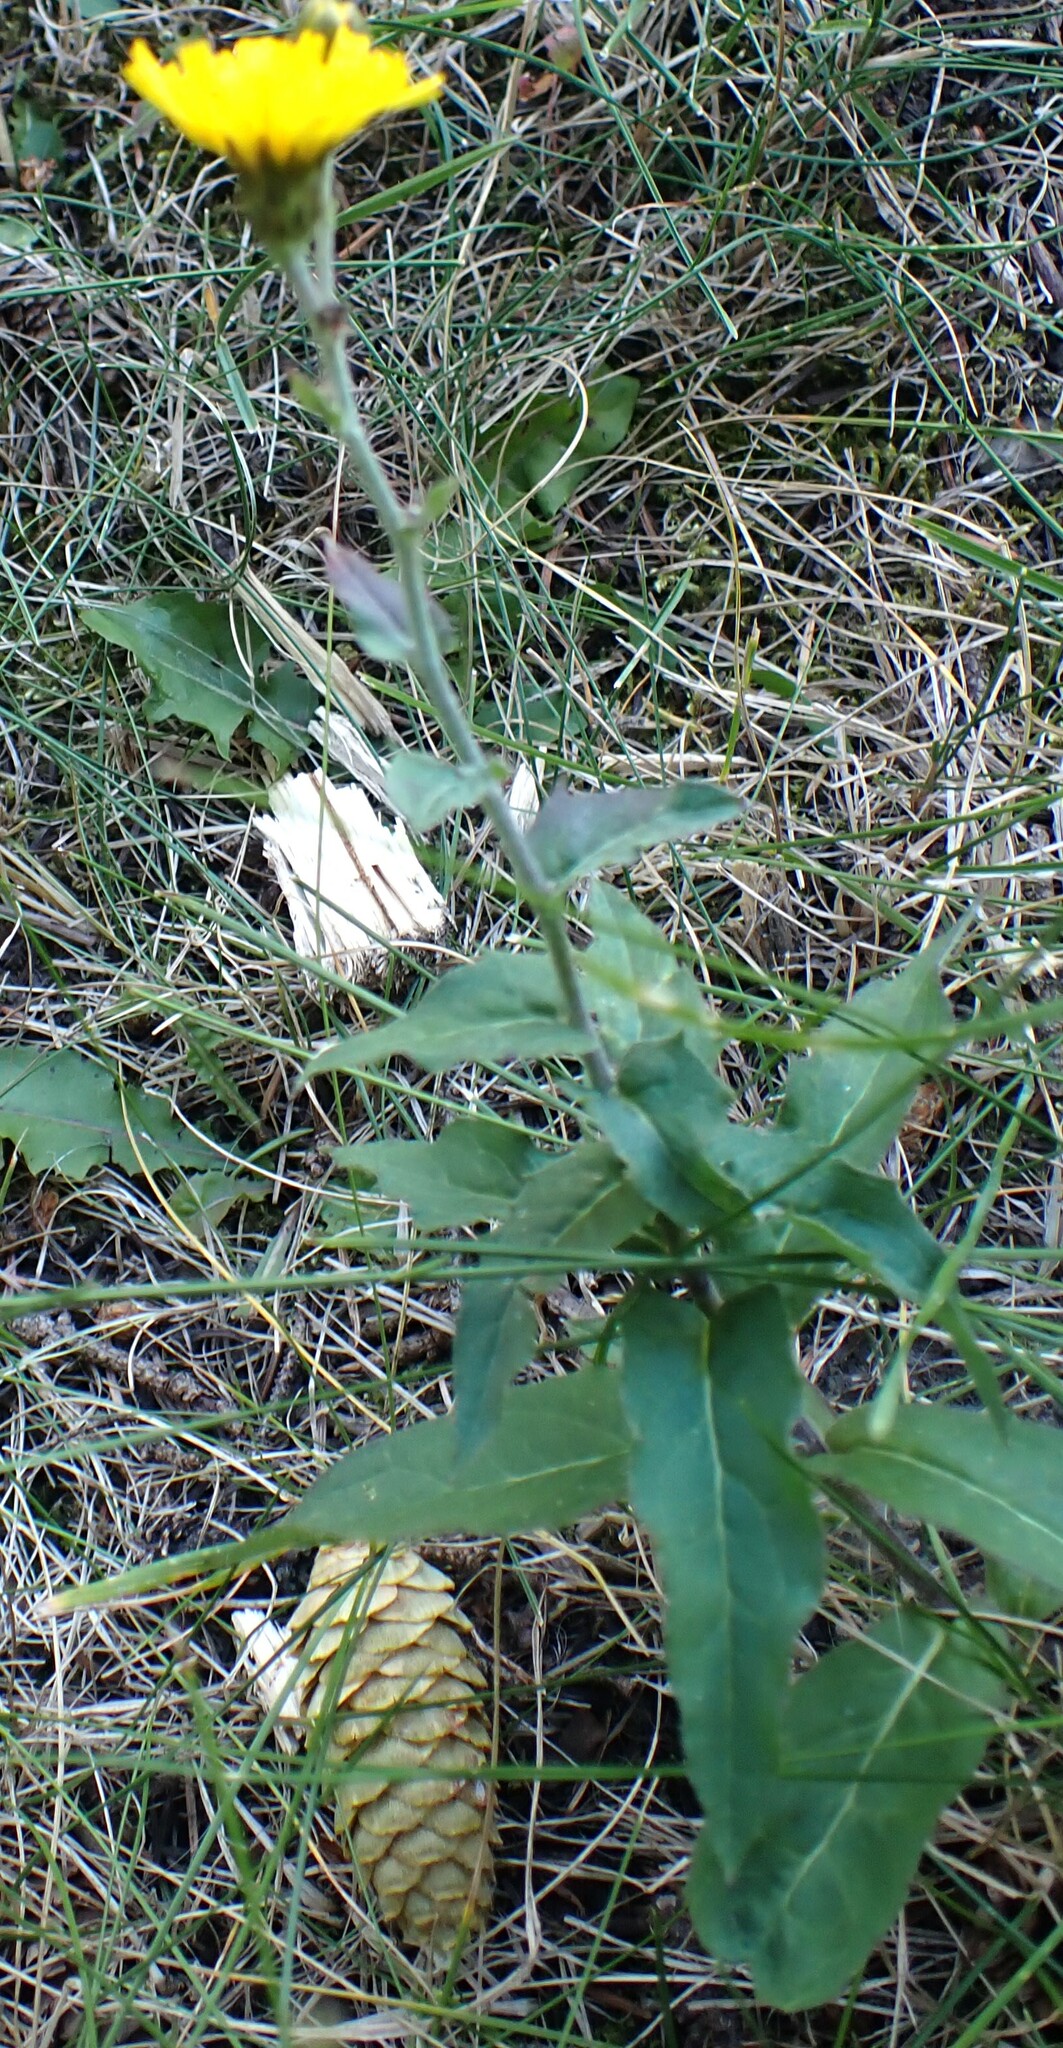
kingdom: Plantae
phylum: Tracheophyta
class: Magnoliopsida
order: Asterales
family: Asteraceae
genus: Hieracium
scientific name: Hieracium umbellatum
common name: Northern hawkweed
